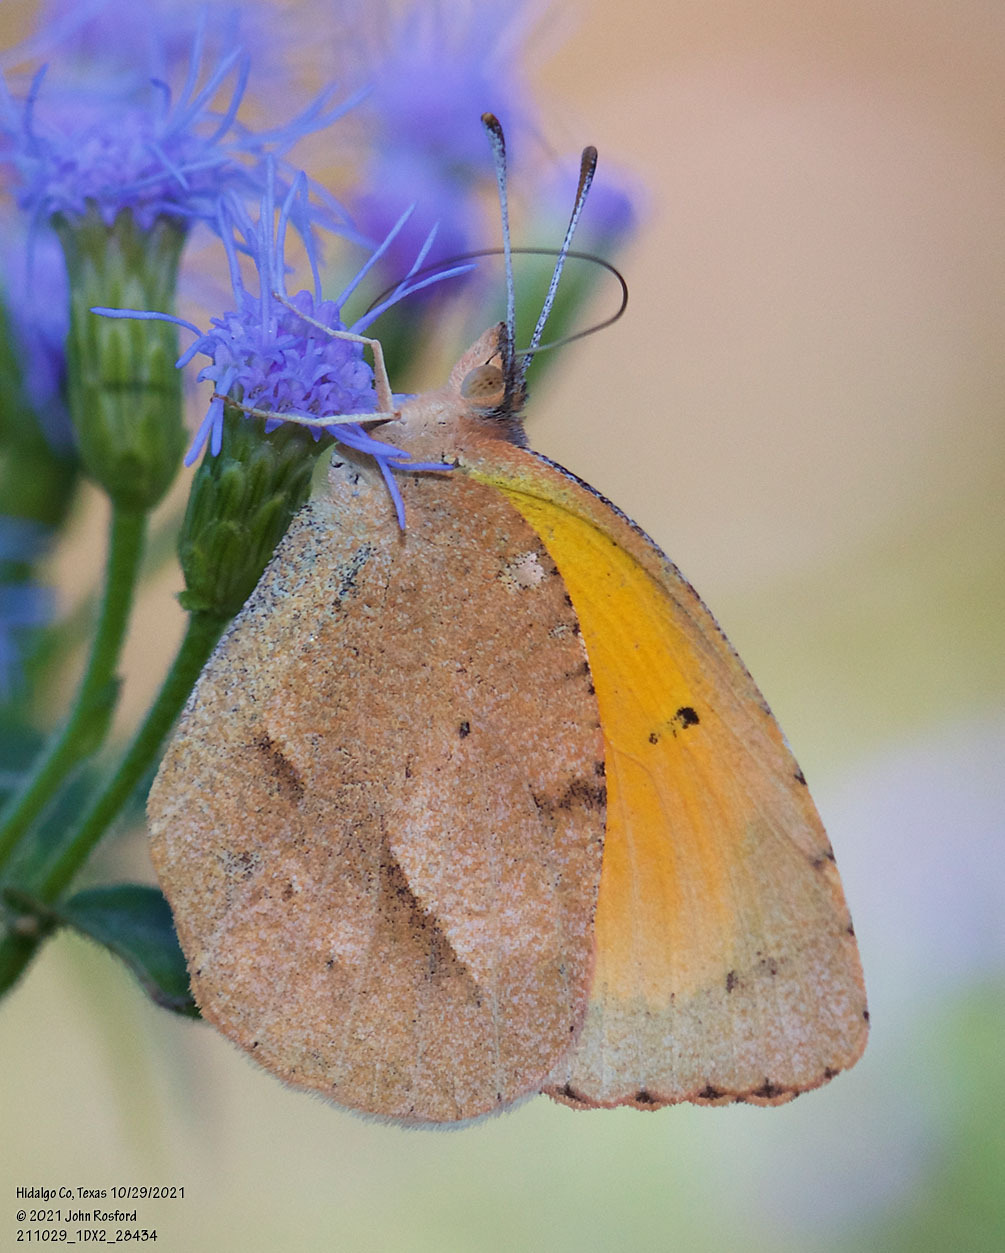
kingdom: Animalia
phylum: Arthropoda
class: Insecta
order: Lepidoptera
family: Pieridae
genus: Abaeis
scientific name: Abaeis nicippe
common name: Sleepy orange
